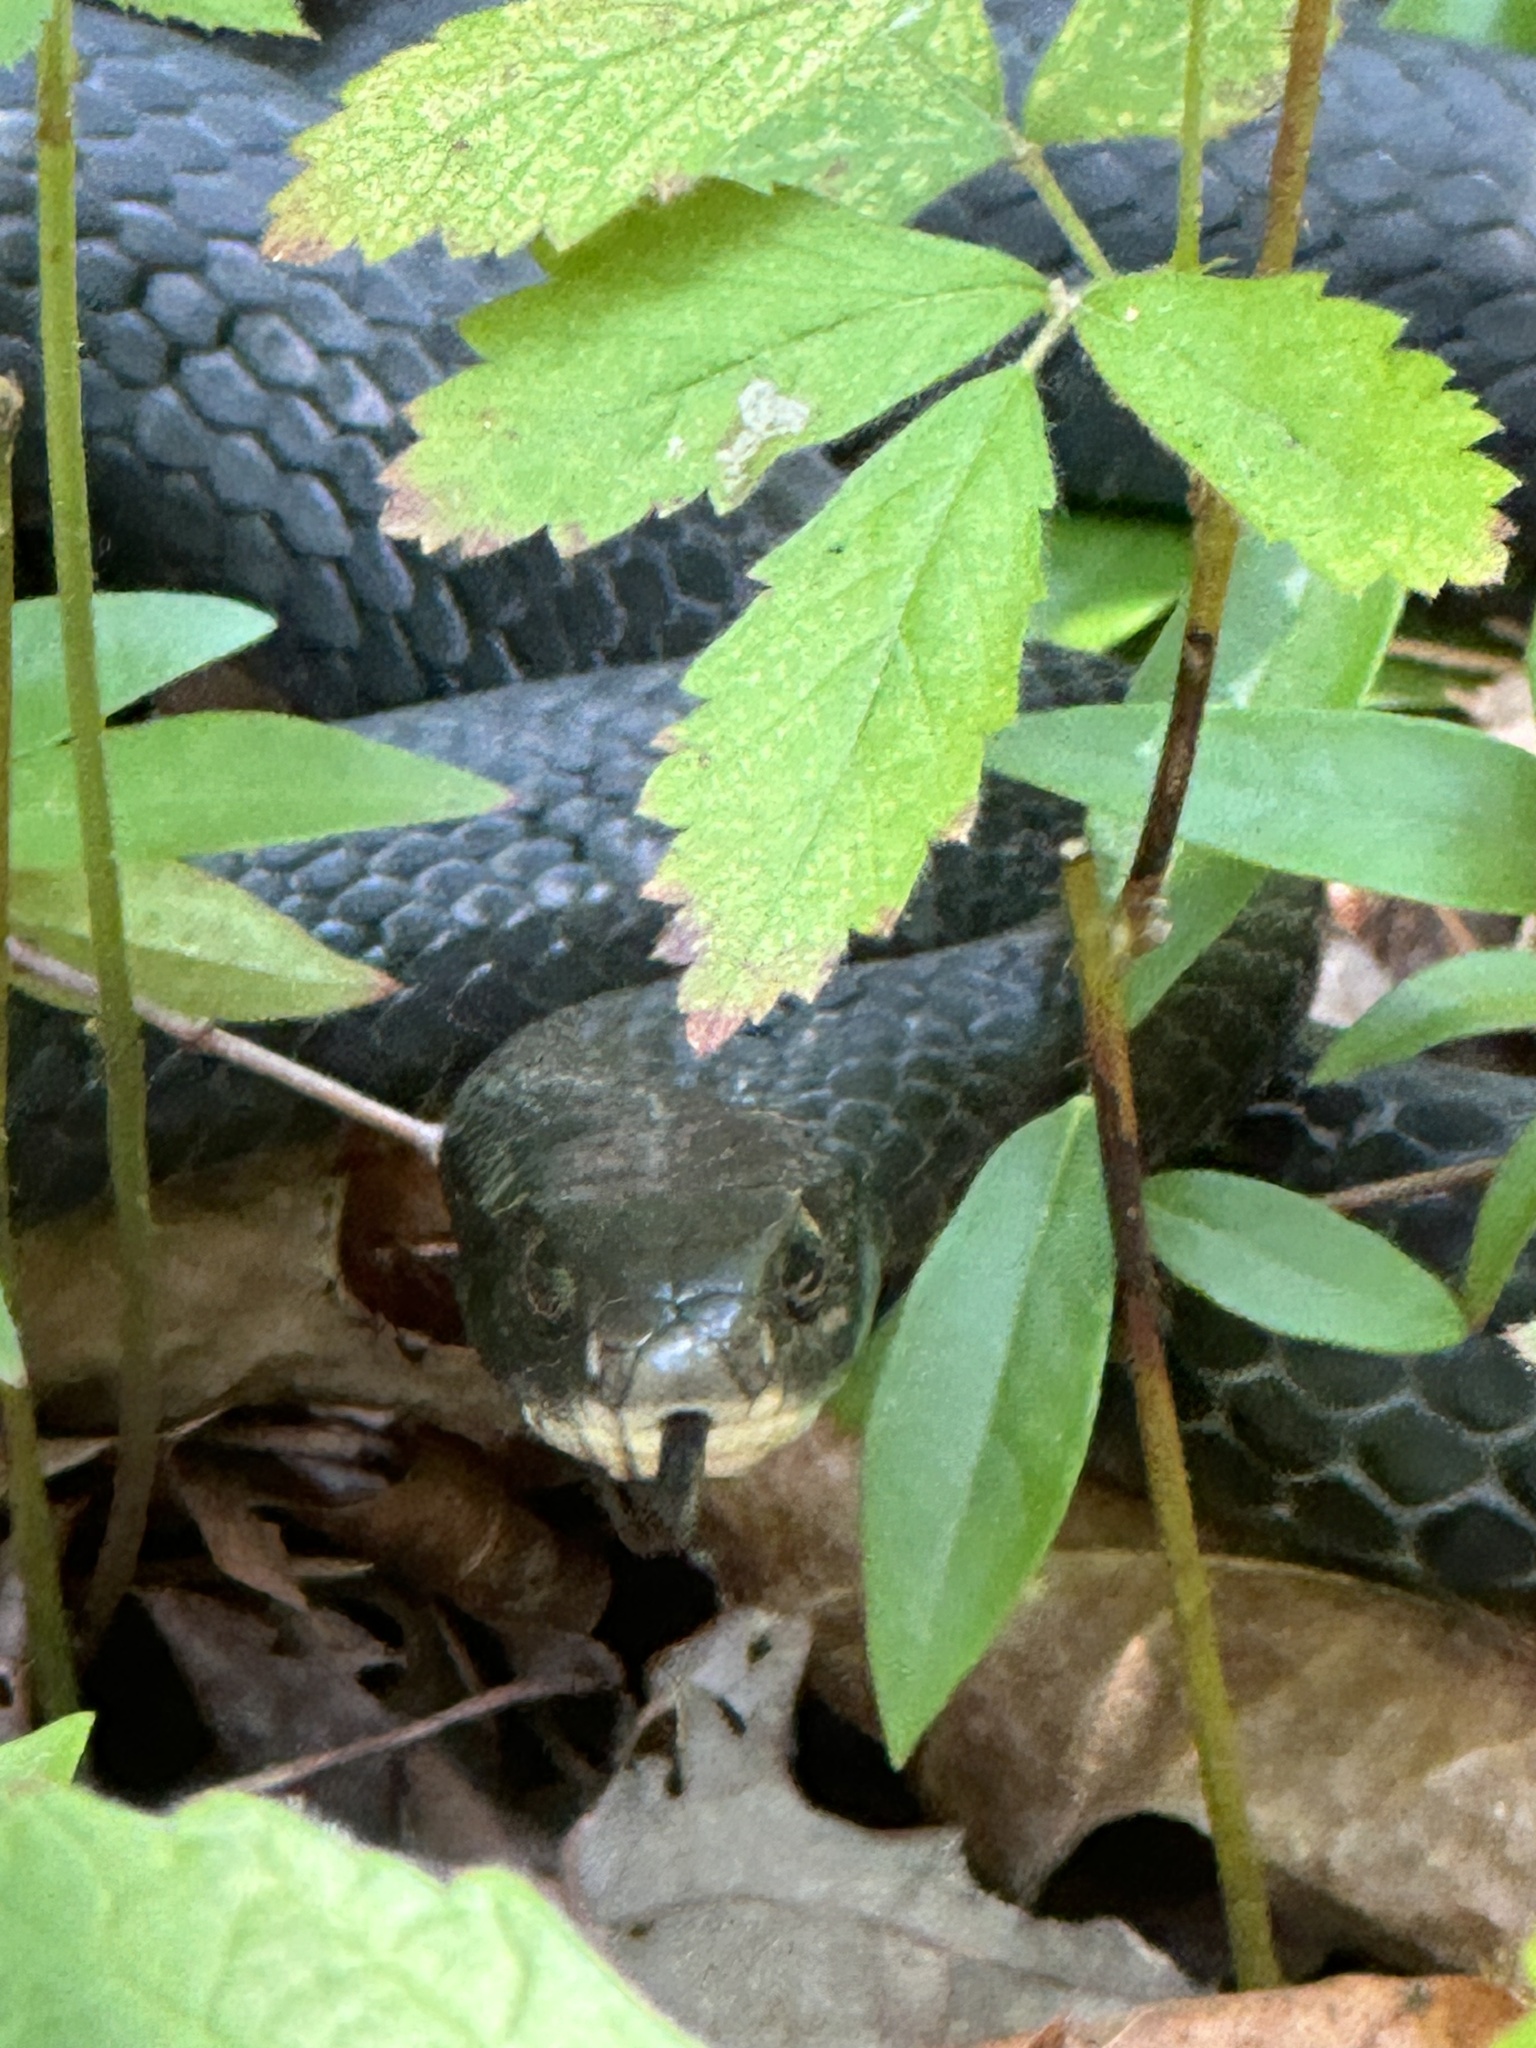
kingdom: Animalia
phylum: Chordata
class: Squamata
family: Colubridae
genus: Coluber
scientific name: Coluber constrictor
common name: Eastern racer
